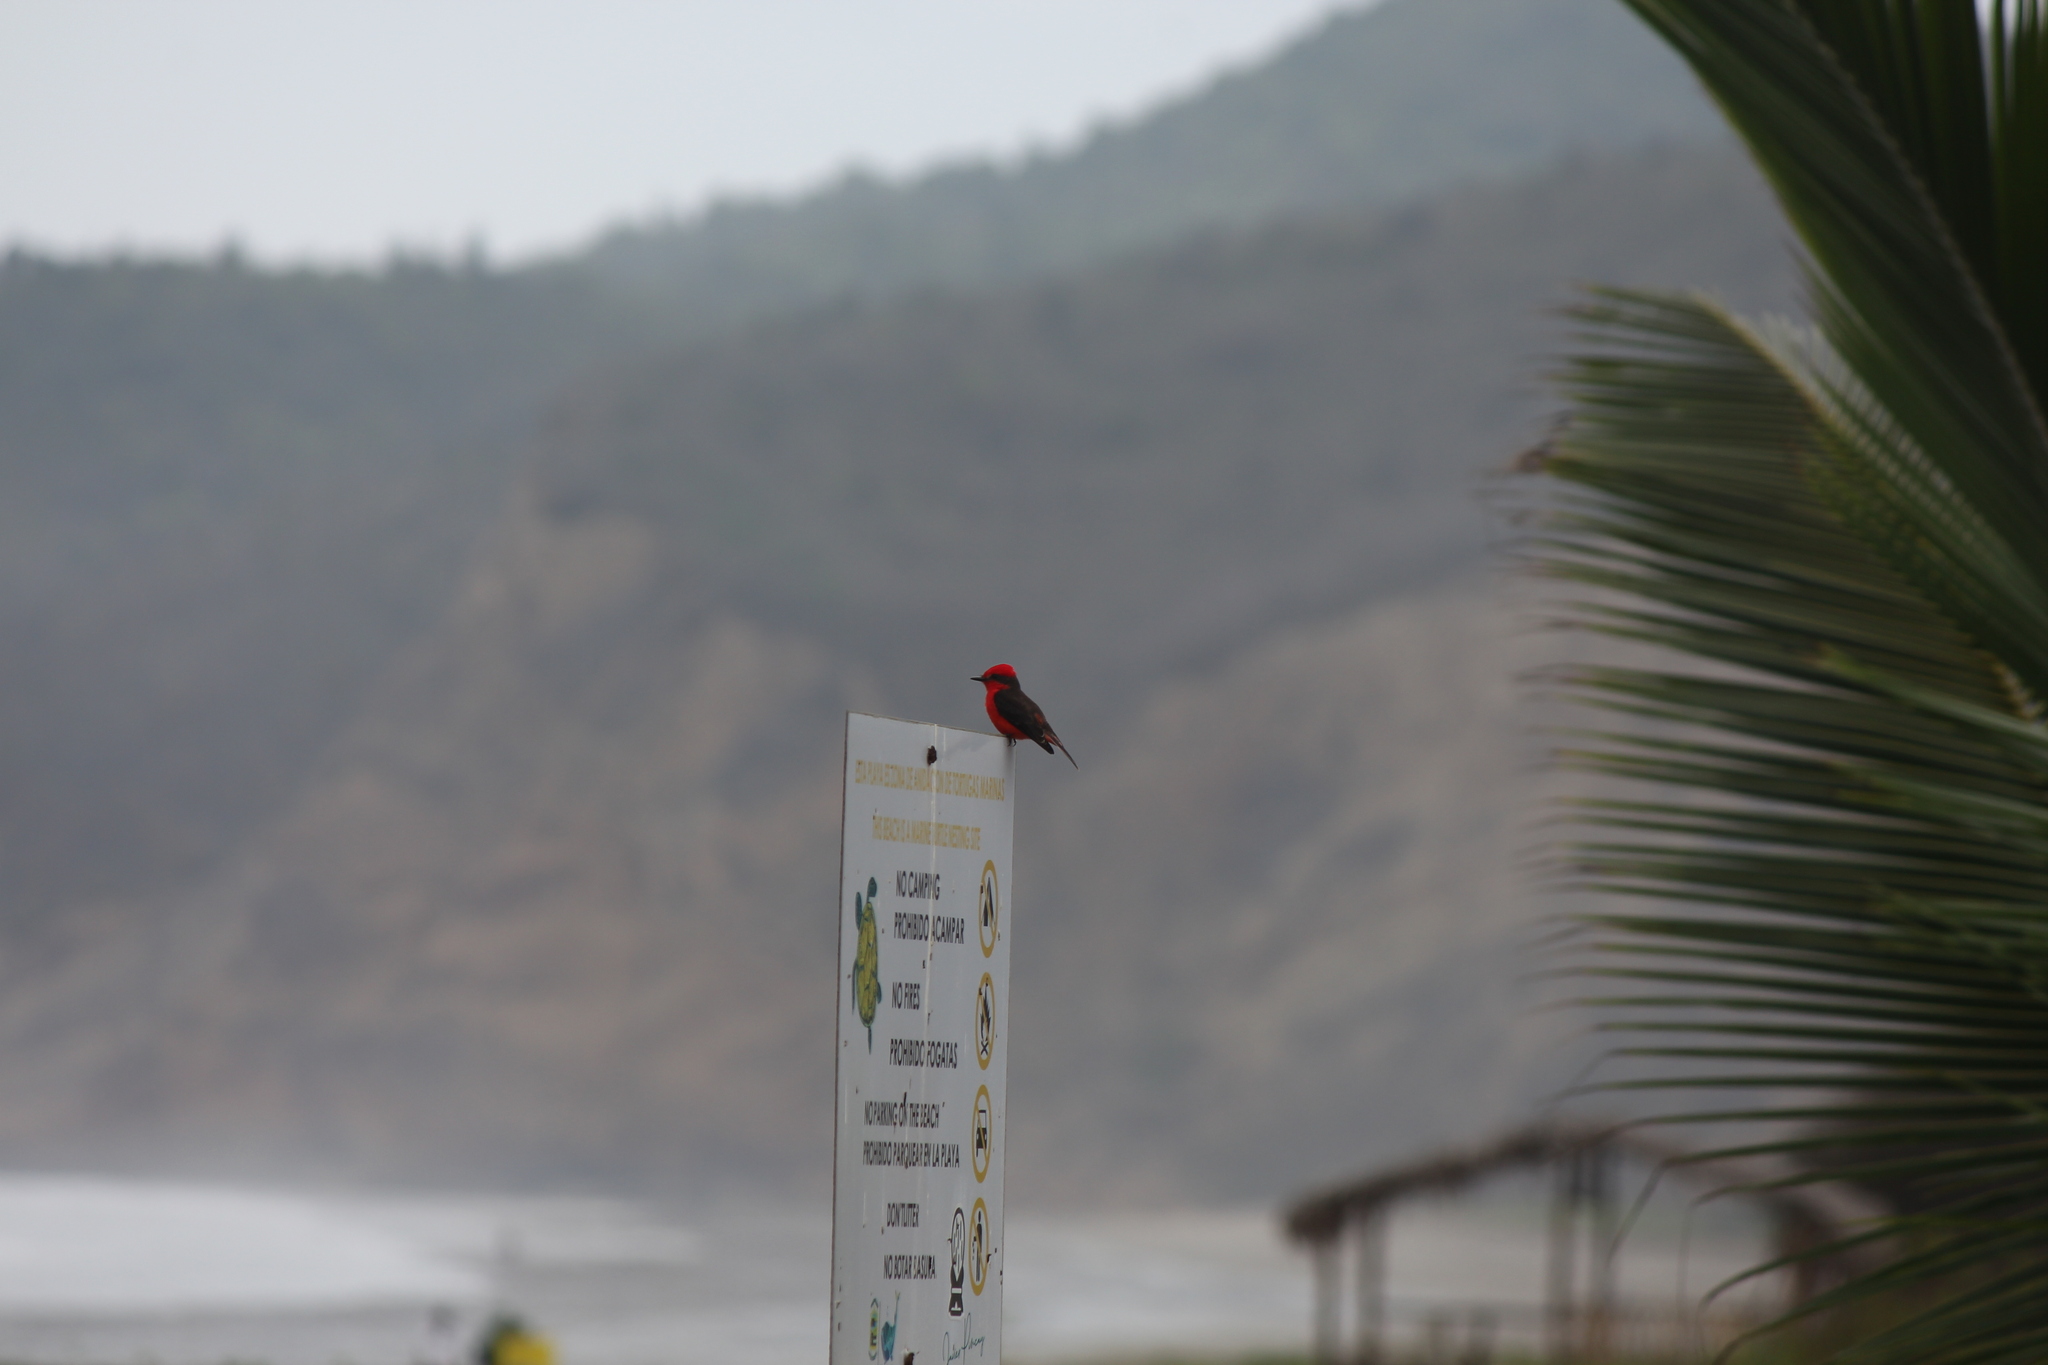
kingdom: Animalia
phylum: Chordata
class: Aves
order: Passeriformes
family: Tyrannidae
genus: Pyrocephalus
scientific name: Pyrocephalus rubinus
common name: Vermilion flycatcher
